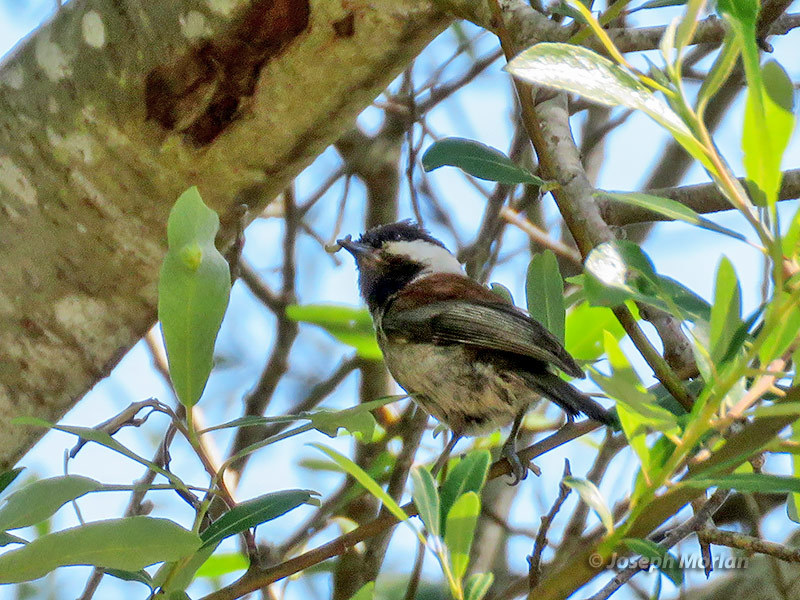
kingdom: Animalia
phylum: Chordata
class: Aves
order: Passeriformes
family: Paridae
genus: Poecile
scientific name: Poecile rufescens
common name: Chestnut-backed chickadee
